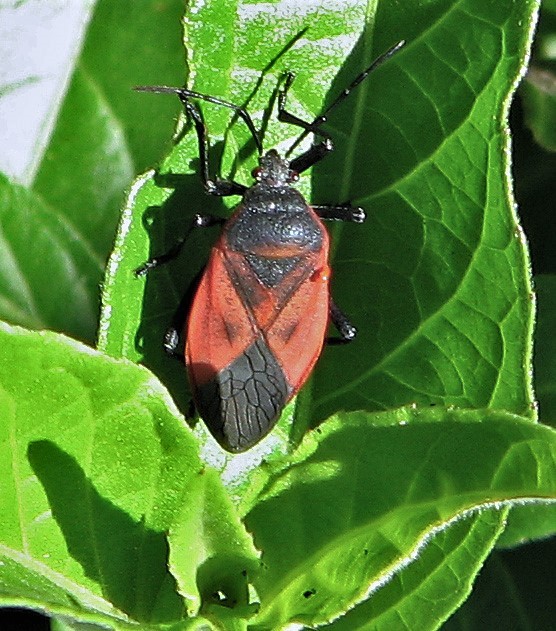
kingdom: Animalia
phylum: Arthropoda
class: Insecta
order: Hemiptera
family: Largidae
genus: Largus
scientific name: Largus rufipennis
